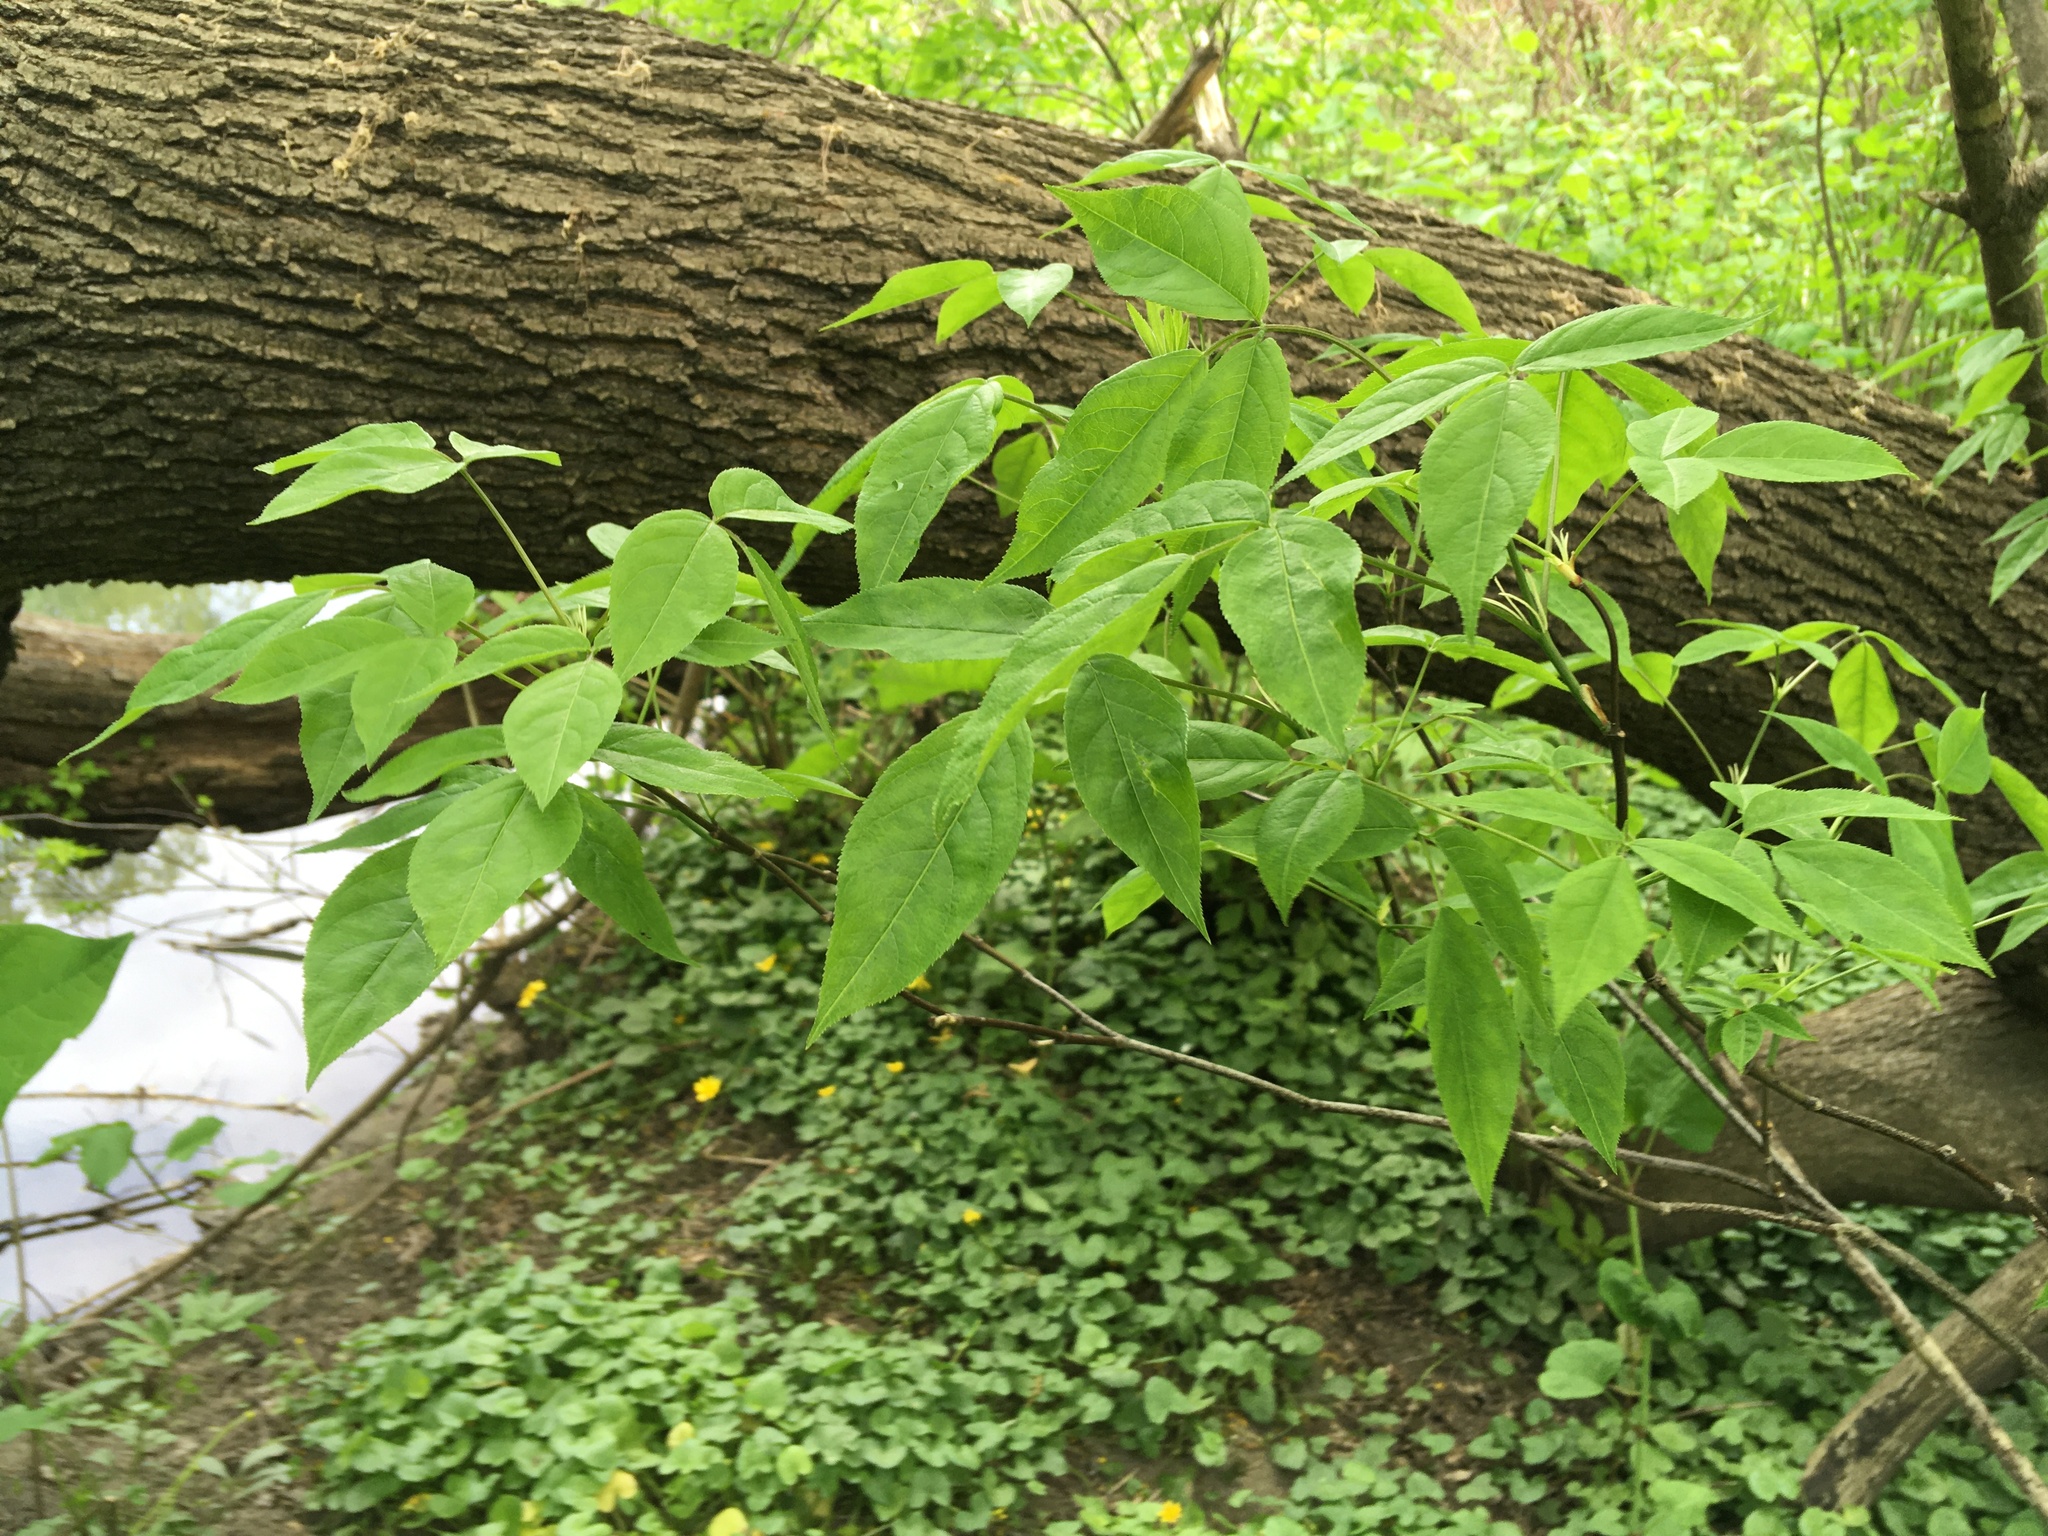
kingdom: Plantae
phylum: Tracheophyta
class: Magnoliopsida
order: Crossosomatales
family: Staphyleaceae
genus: Staphylea
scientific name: Staphylea trifolia
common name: American bladdernut
